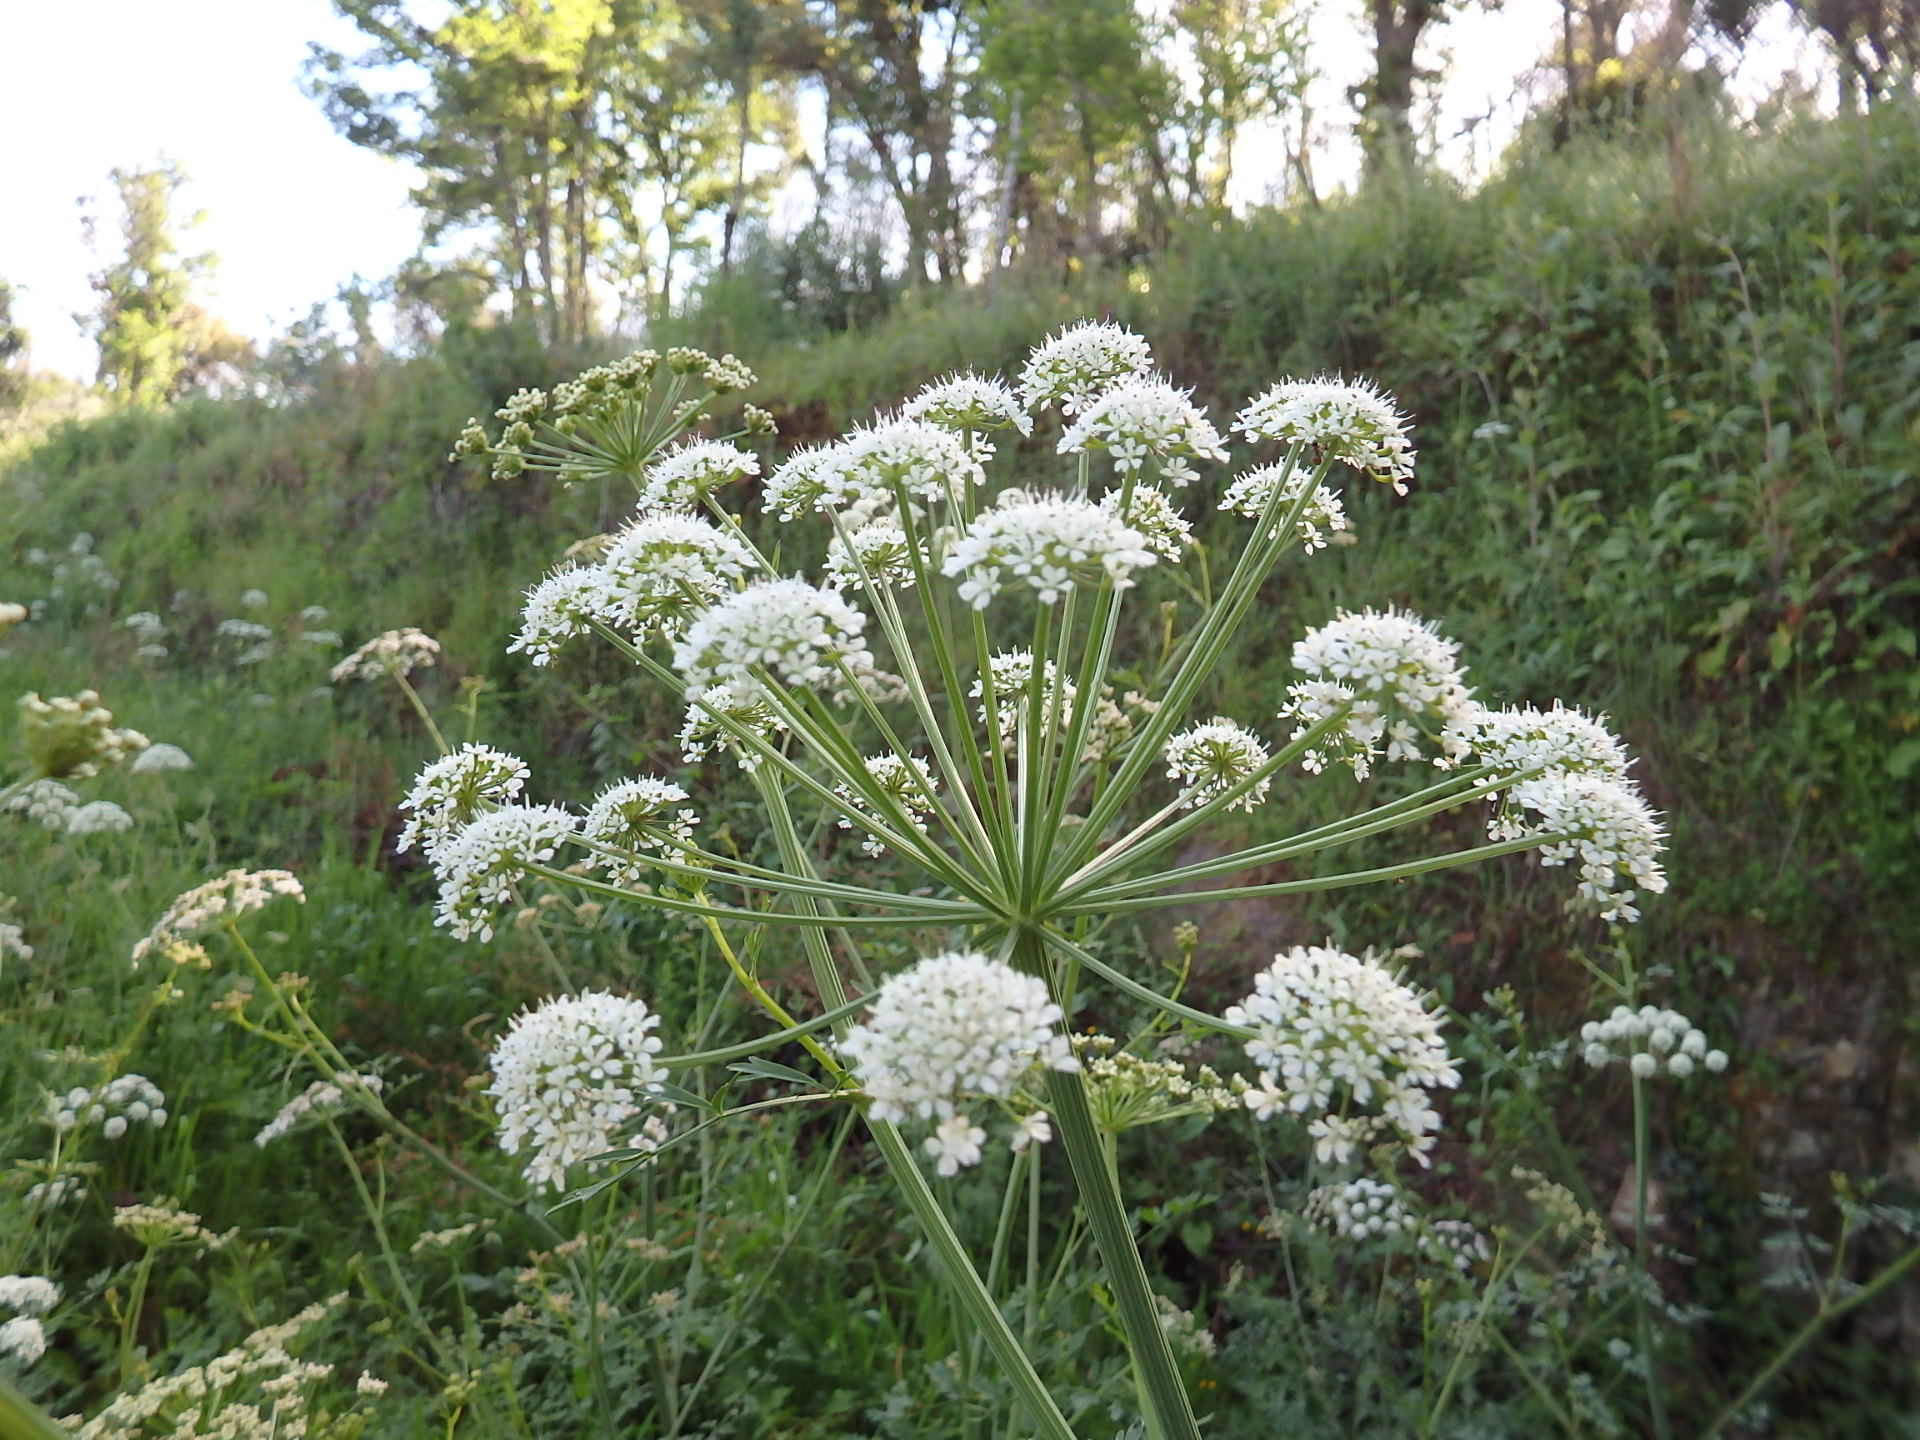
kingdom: Plantae
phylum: Tracheophyta
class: Magnoliopsida
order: Apiales
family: Apiaceae
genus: Oenanthe
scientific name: Oenanthe crocata
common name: Hemlock water-dropwort
